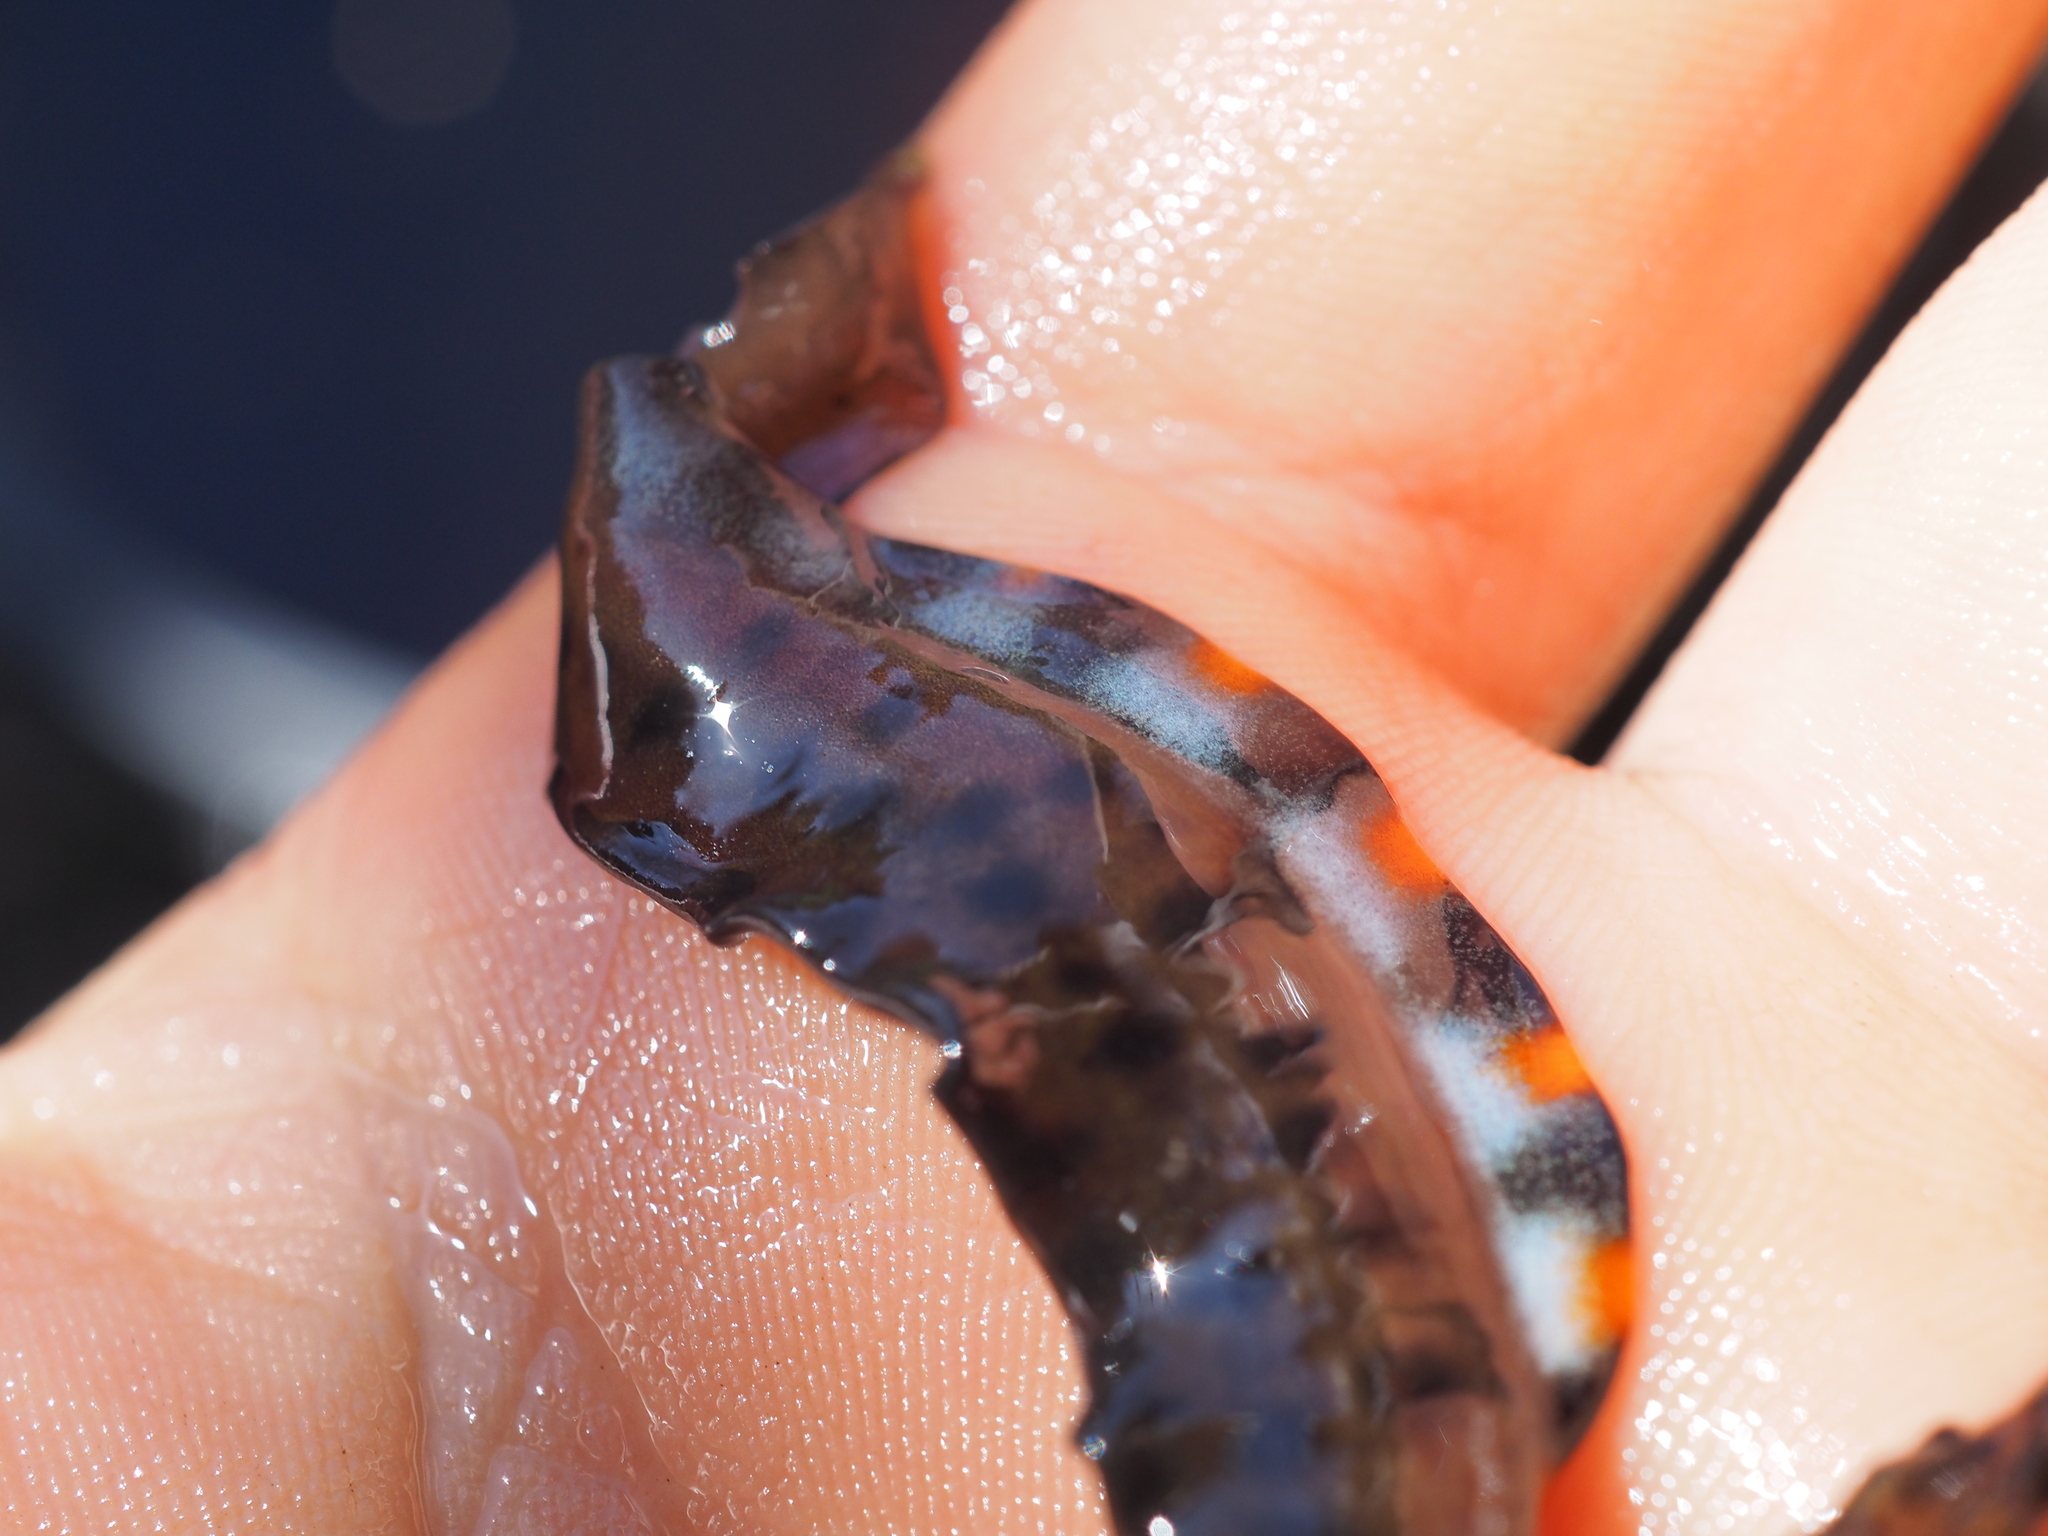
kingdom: Animalia
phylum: Chordata
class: Amphibia
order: Caudata
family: Salamandridae
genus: Lissotriton
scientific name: Lissotriton vulgaris
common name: Smooth newt
